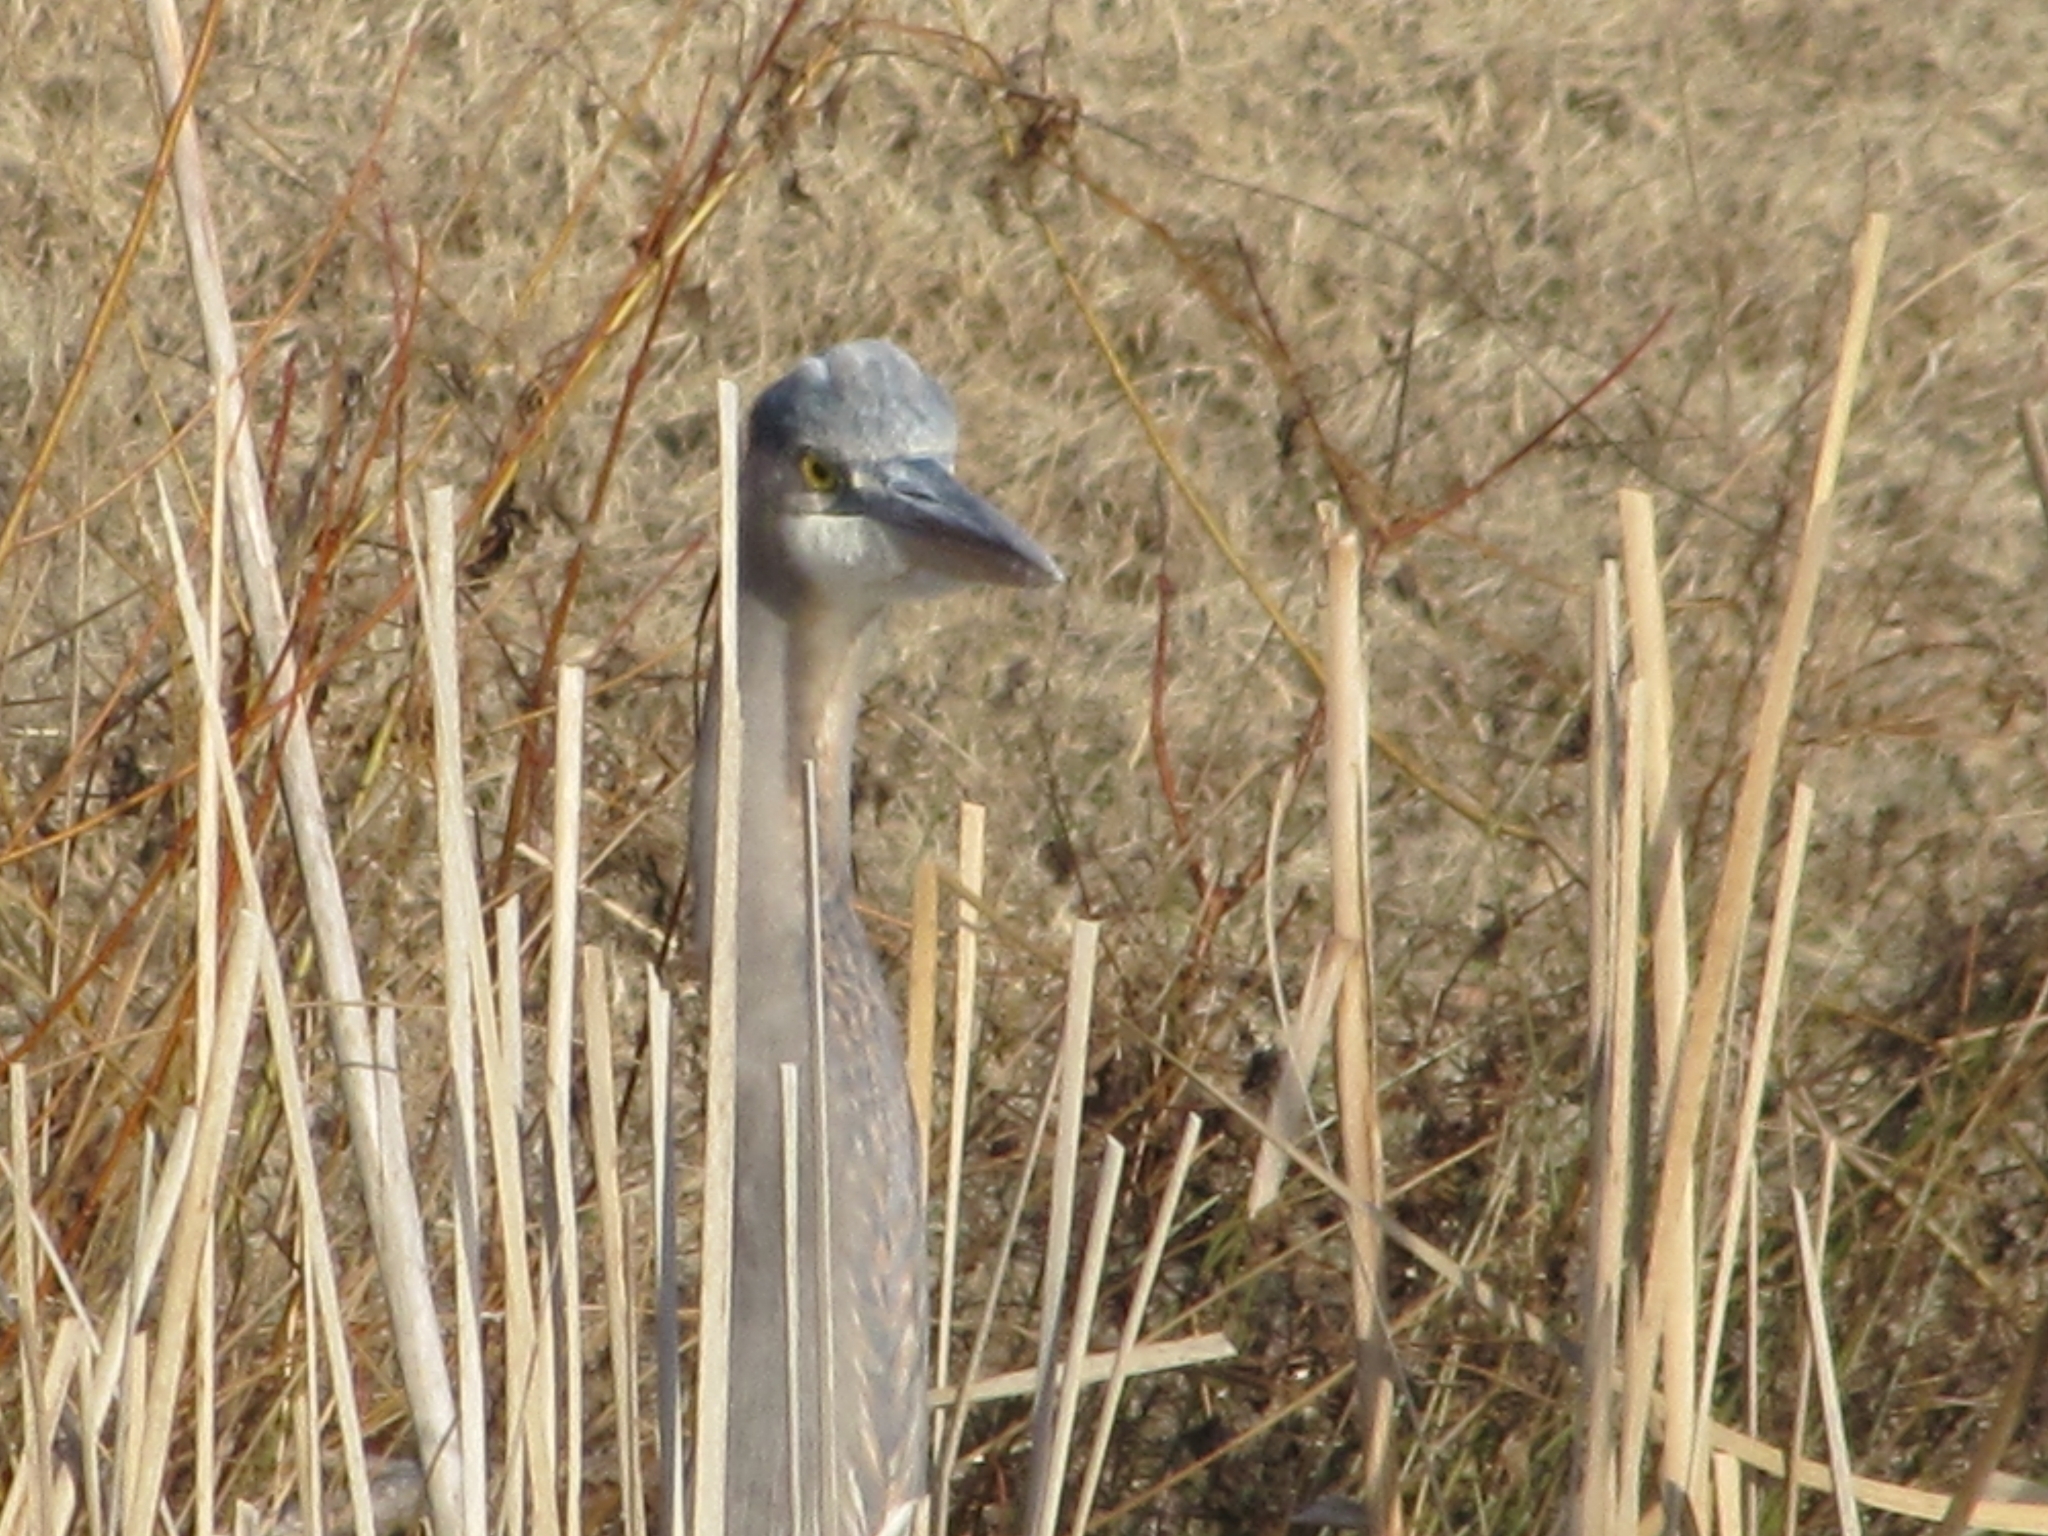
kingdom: Animalia
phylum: Chordata
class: Aves
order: Pelecaniformes
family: Ardeidae
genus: Ardea
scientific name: Ardea herodias
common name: Great blue heron
